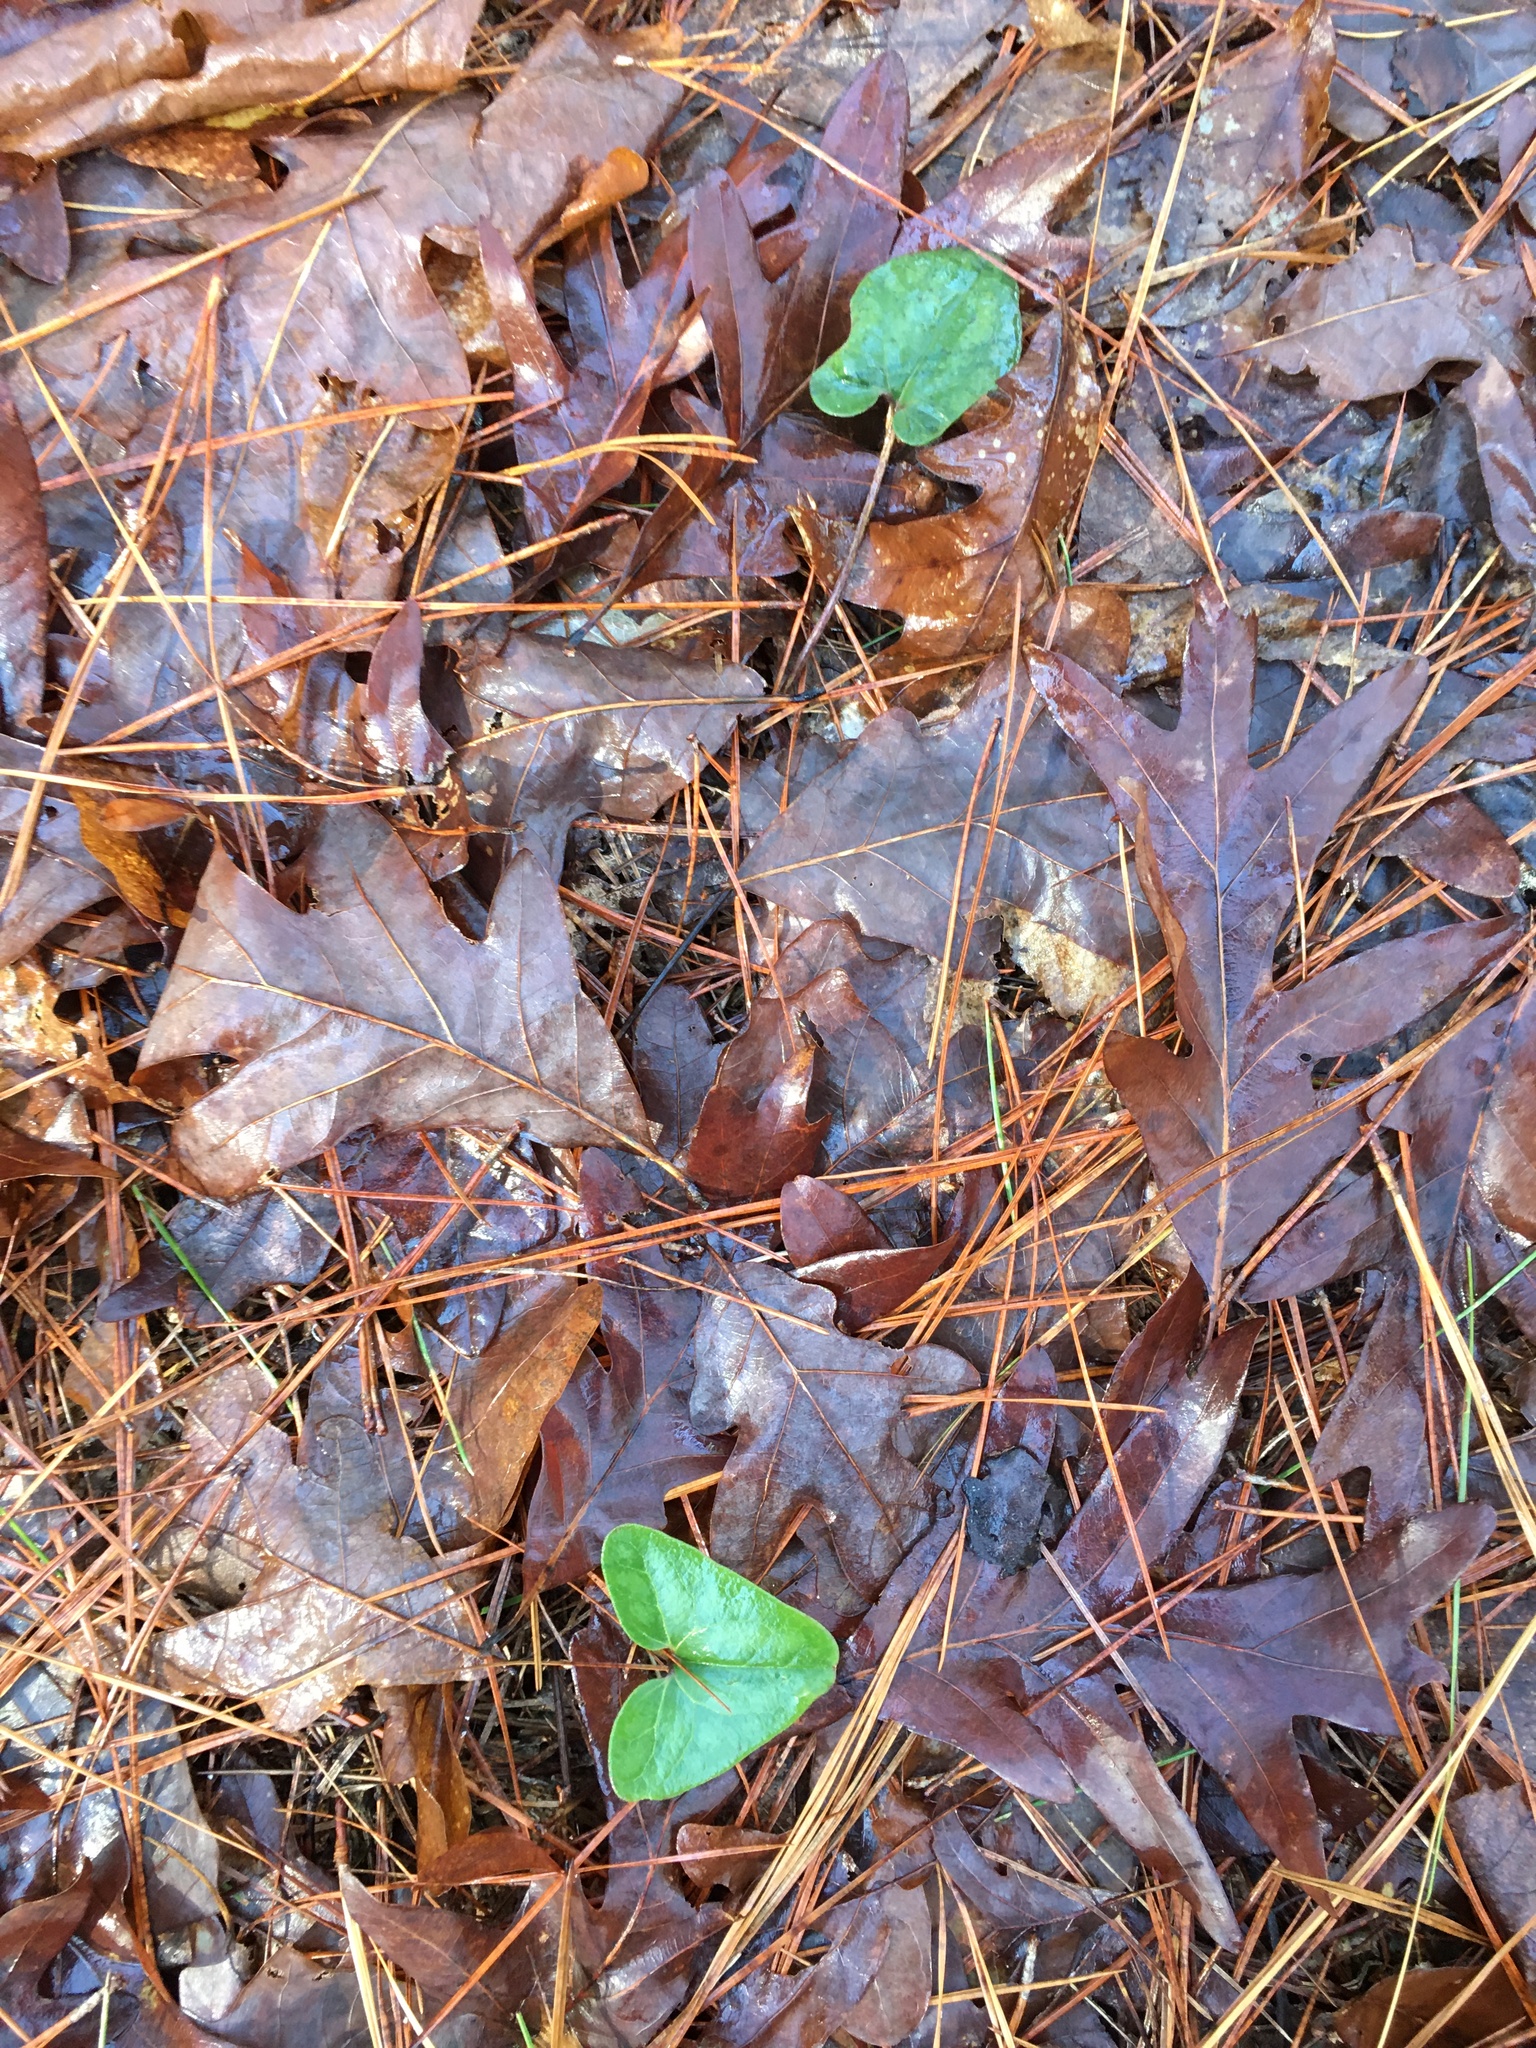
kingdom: Plantae
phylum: Tracheophyta
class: Magnoliopsida
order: Piperales
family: Aristolochiaceae
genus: Hexastylis
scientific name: Hexastylis arifolia
